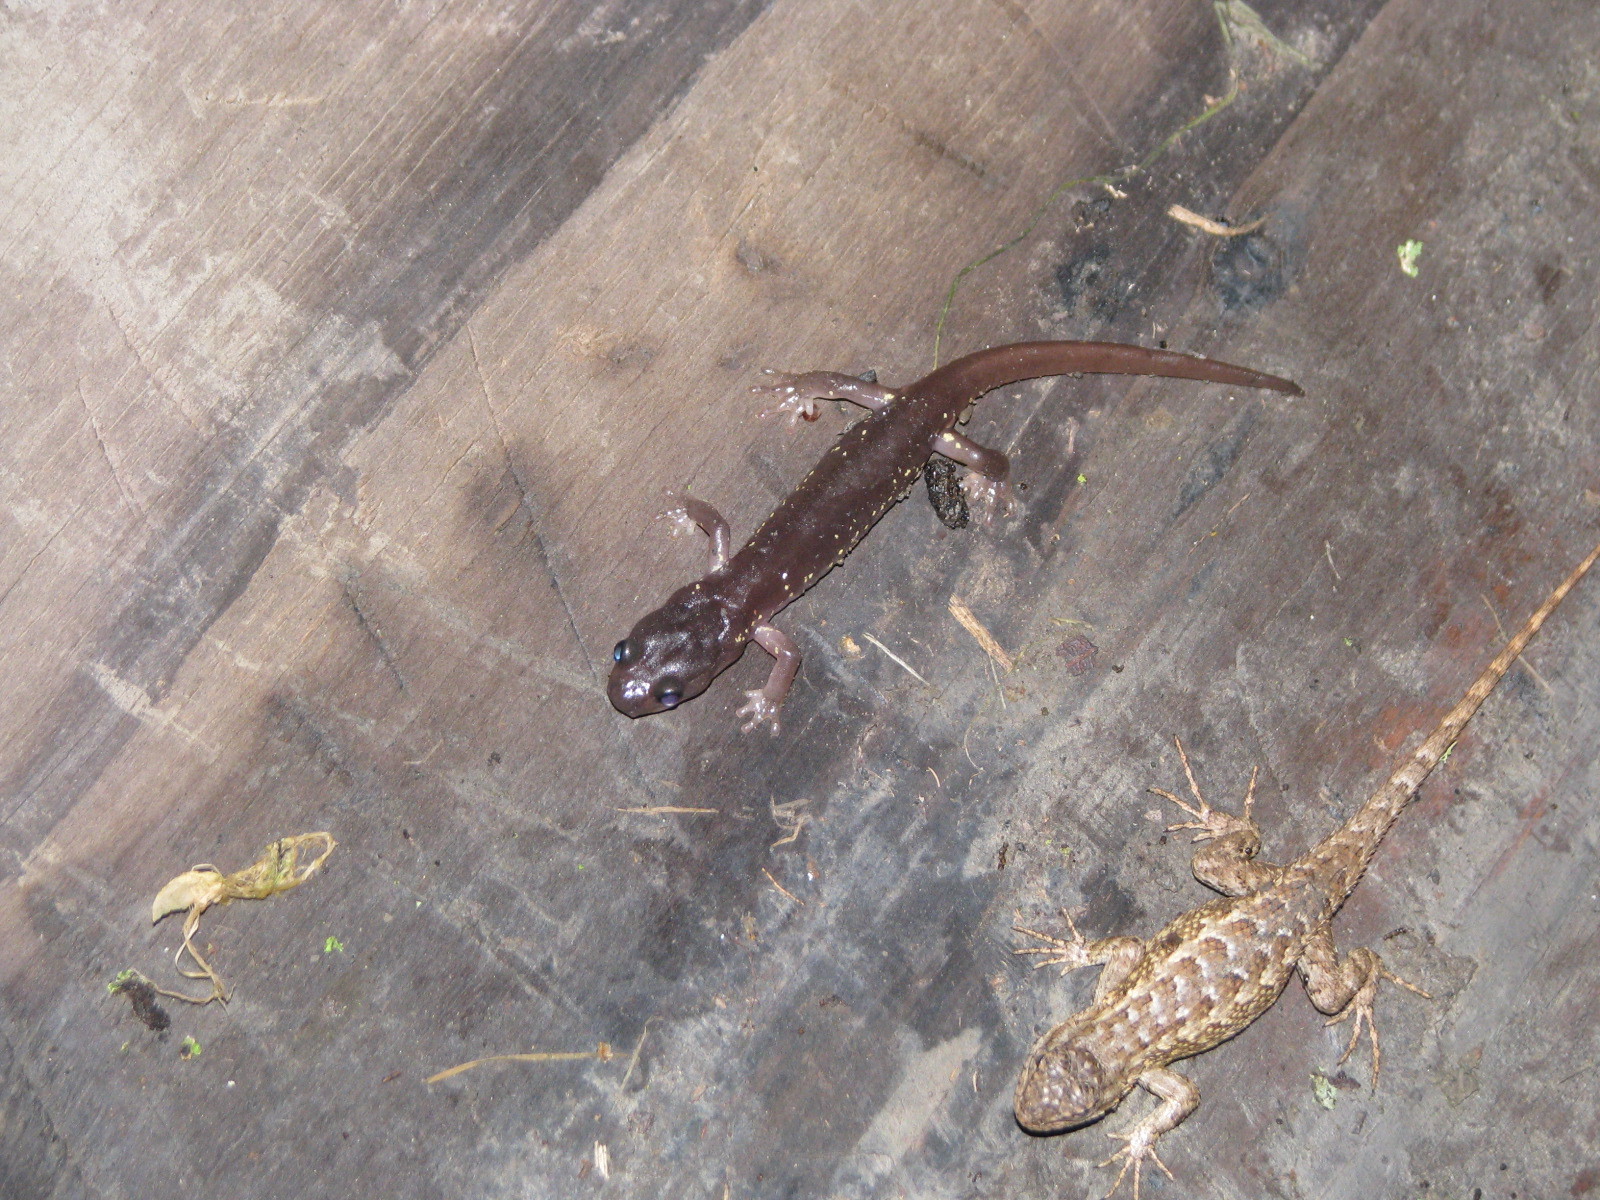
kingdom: Animalia
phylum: Chordata
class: Amphibia
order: Caudata
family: Plethodontidae
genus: Aneides
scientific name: Aneides lugubris
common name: Arboreal salamander
